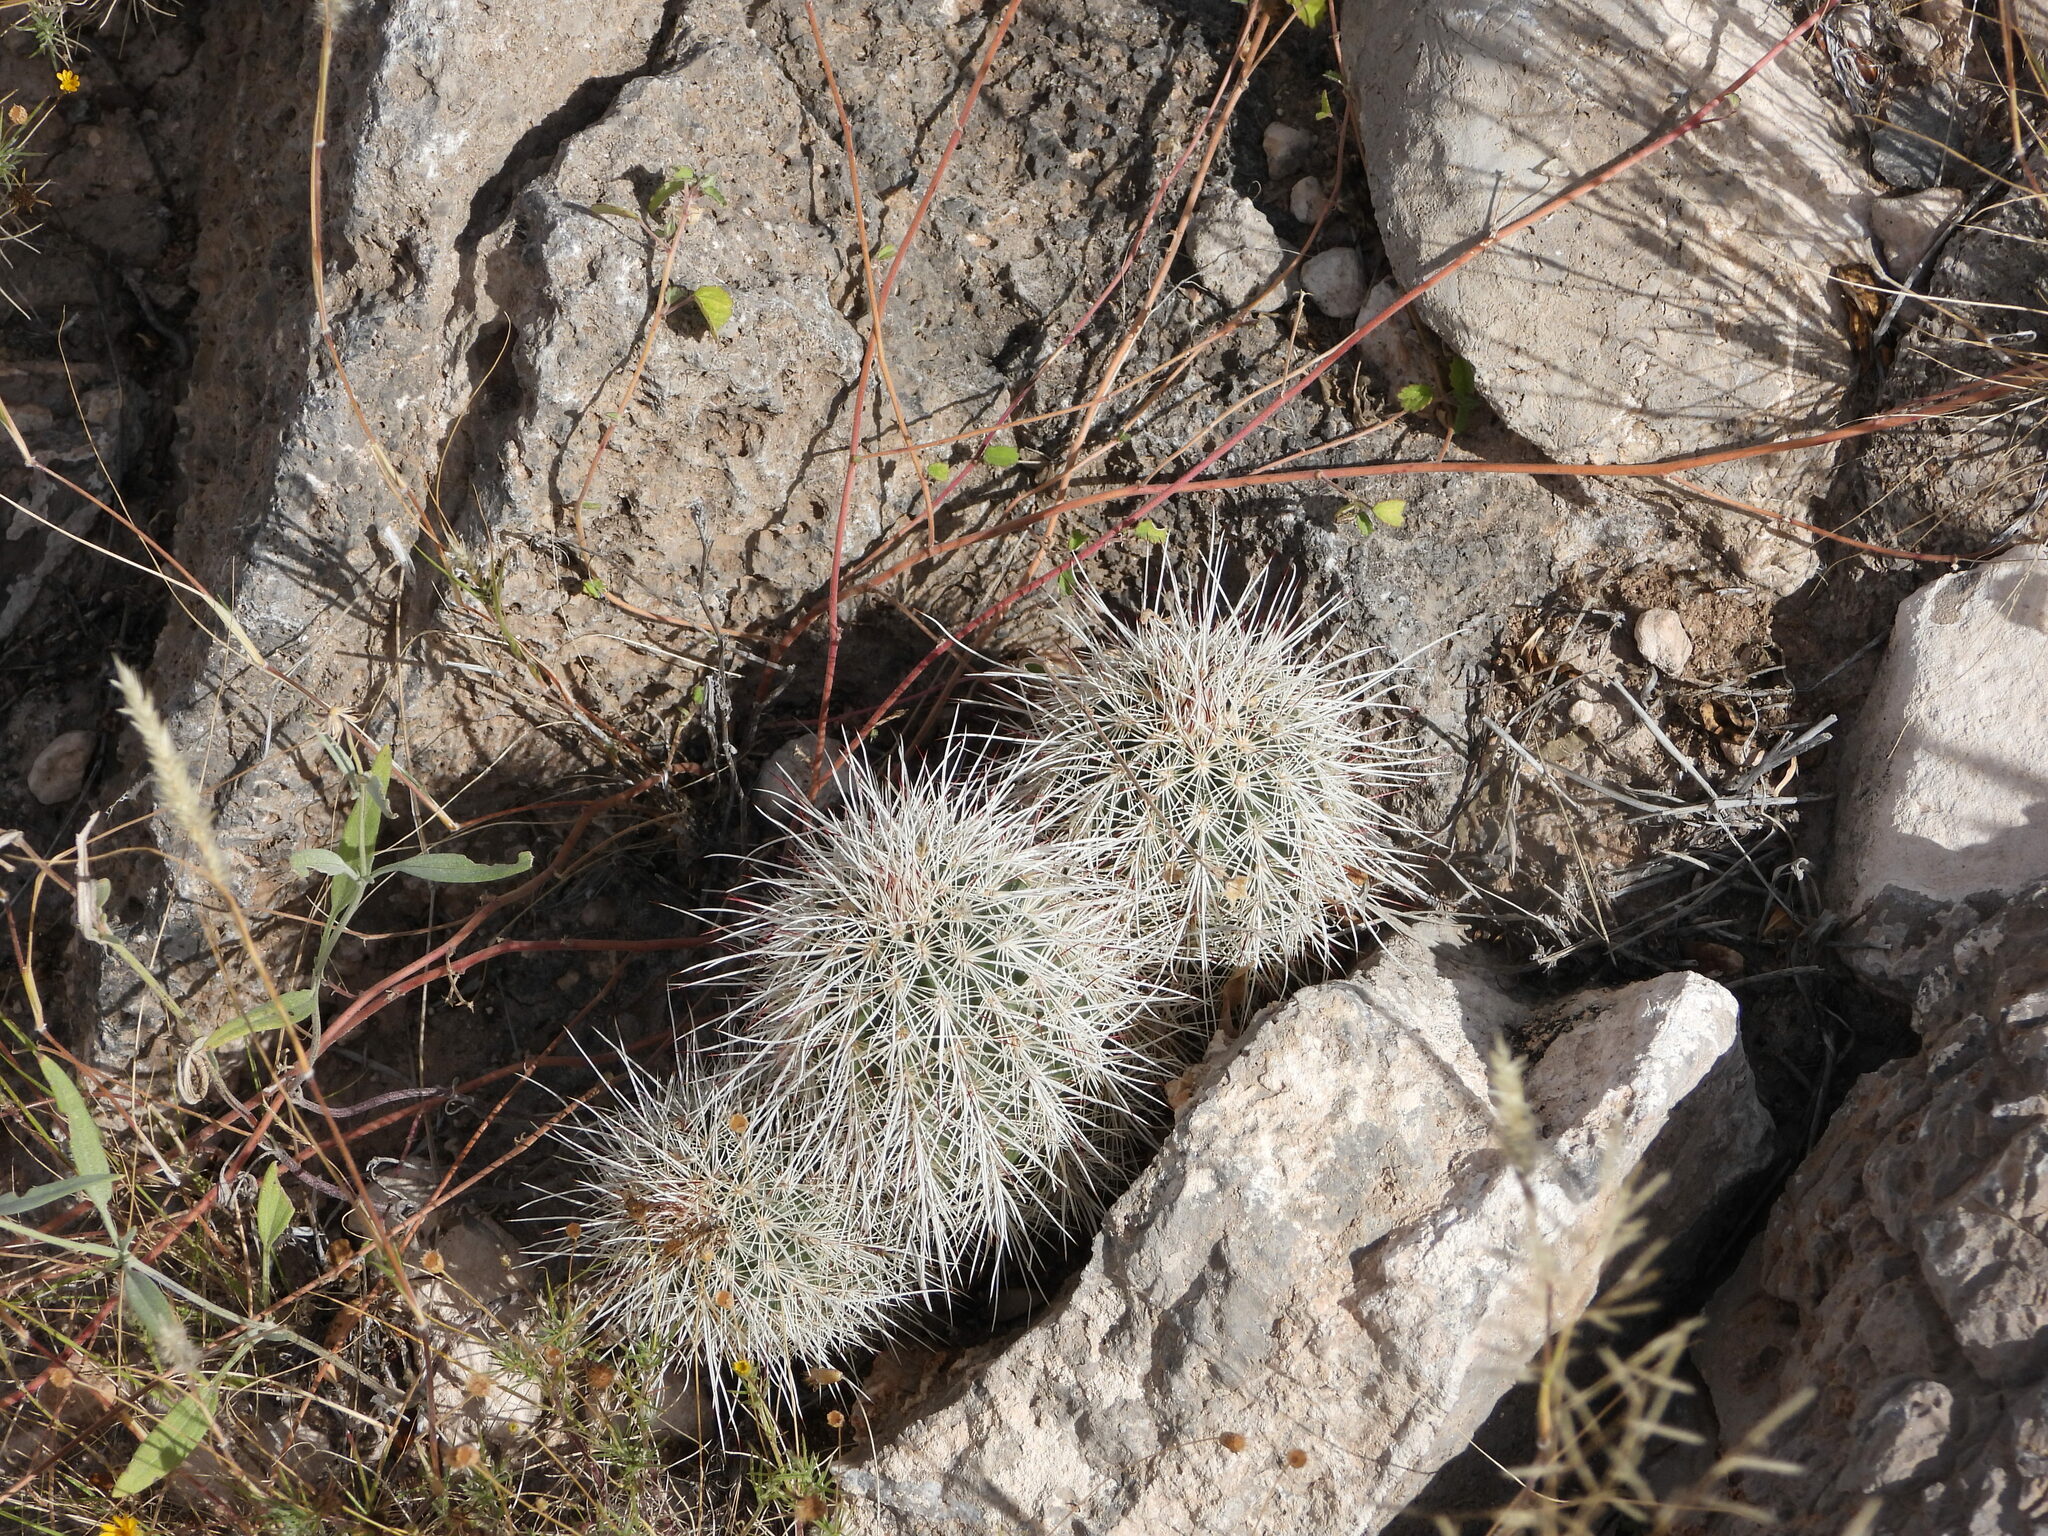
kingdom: Plantae
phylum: Tracheophyta
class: Magnoliopsida
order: Caryophyllales
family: Cactaceae
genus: Echinocereus
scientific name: Echinocereus viridiflorus
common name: Nylon hedgehog cactus
